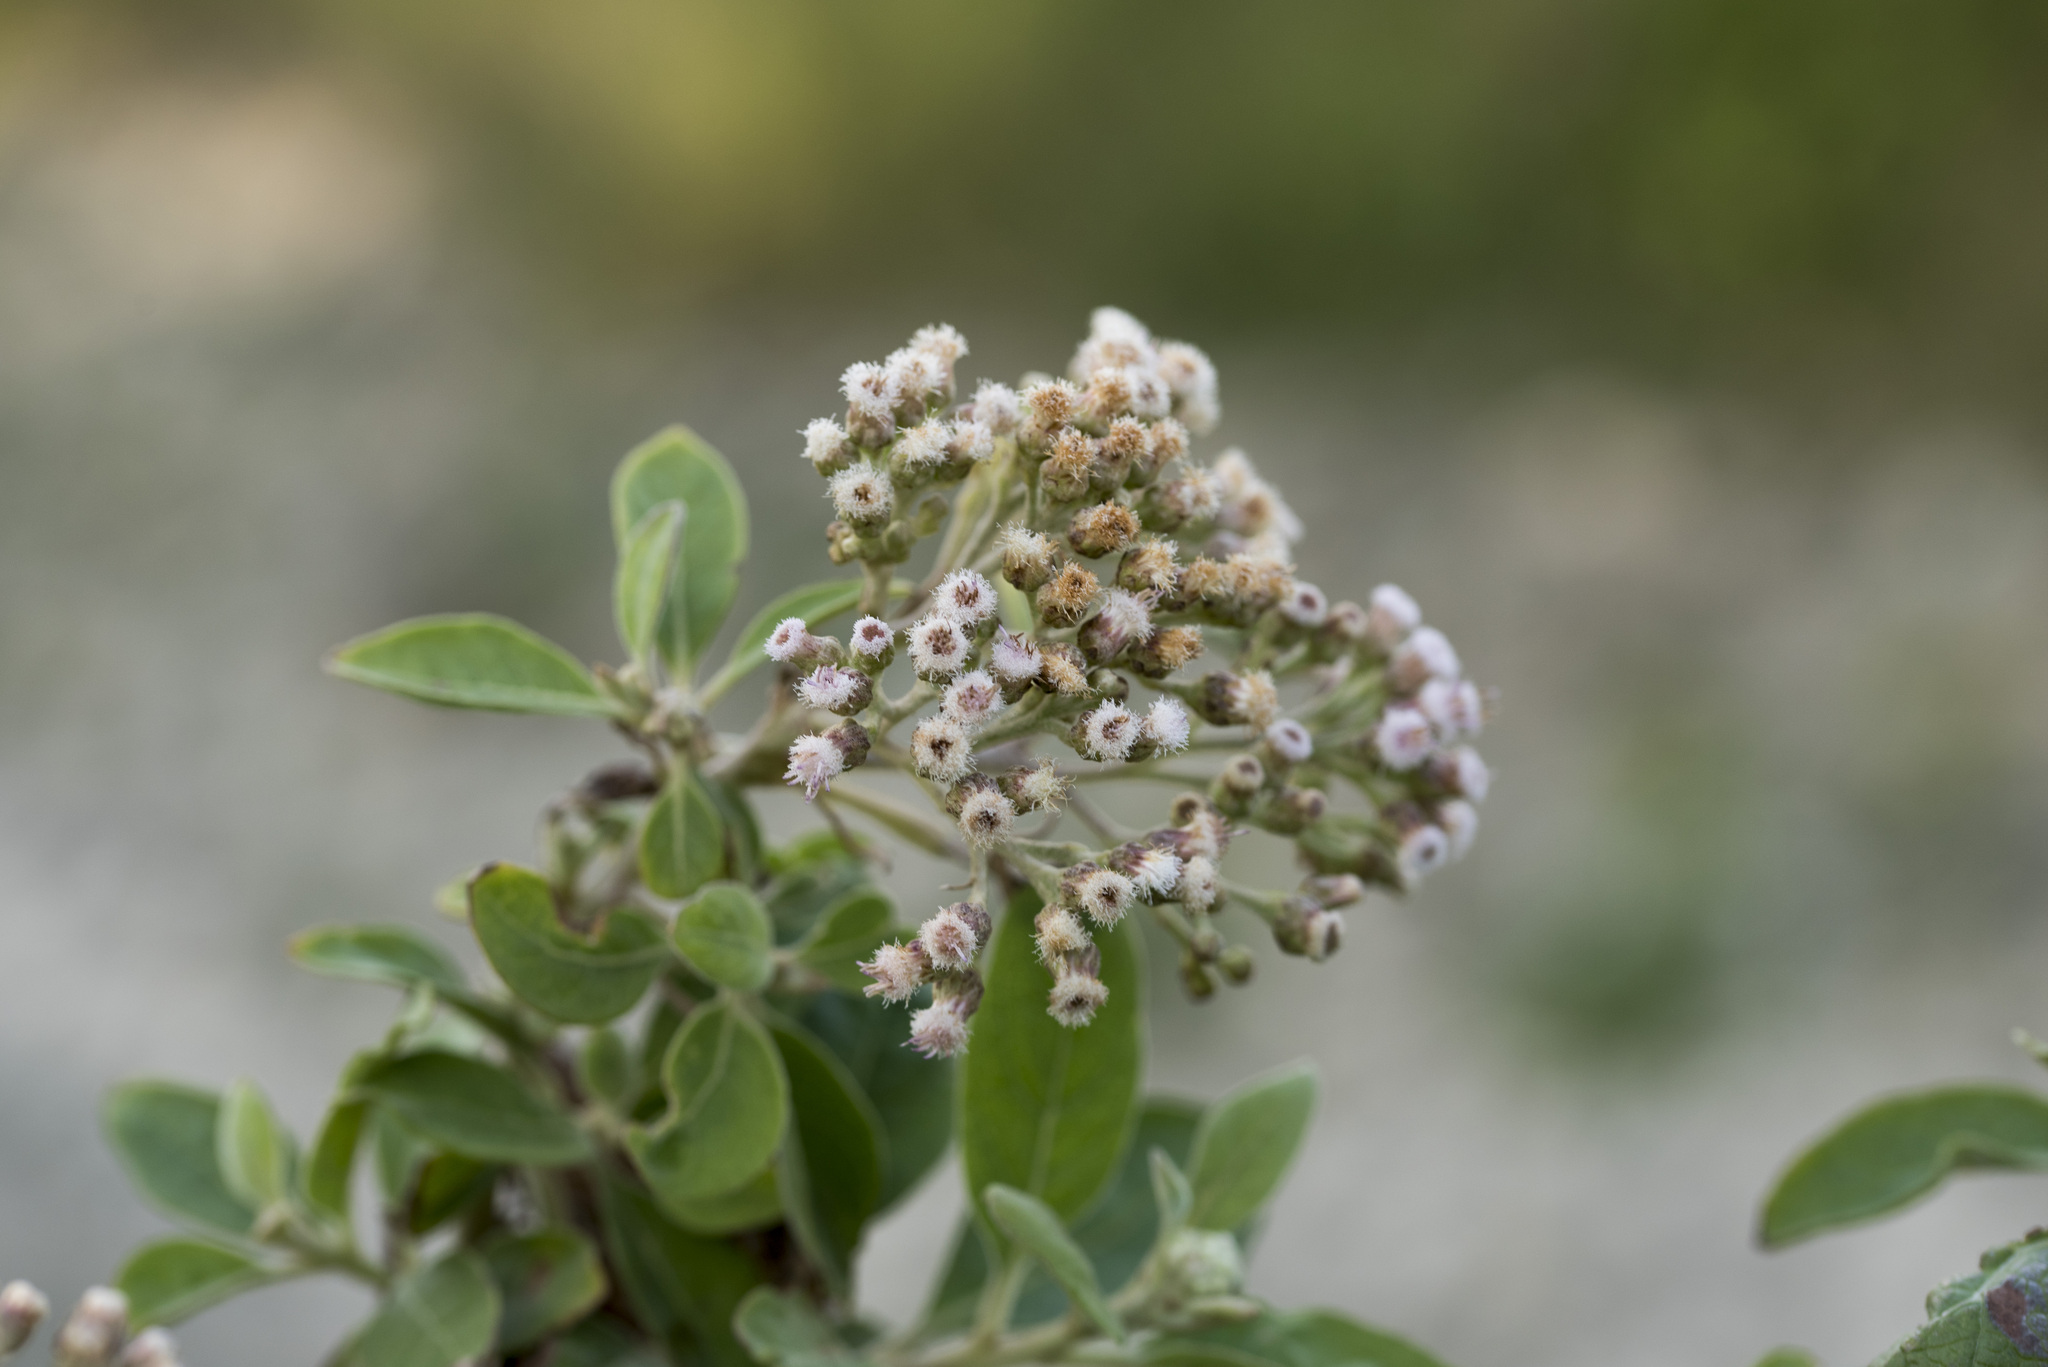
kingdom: Plantae
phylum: Tracheophyta
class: Magnoliopsida
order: Asterales
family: Asteraceae
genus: Pluchea
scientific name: Pluchea carolinensis
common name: Marsh fleabane
